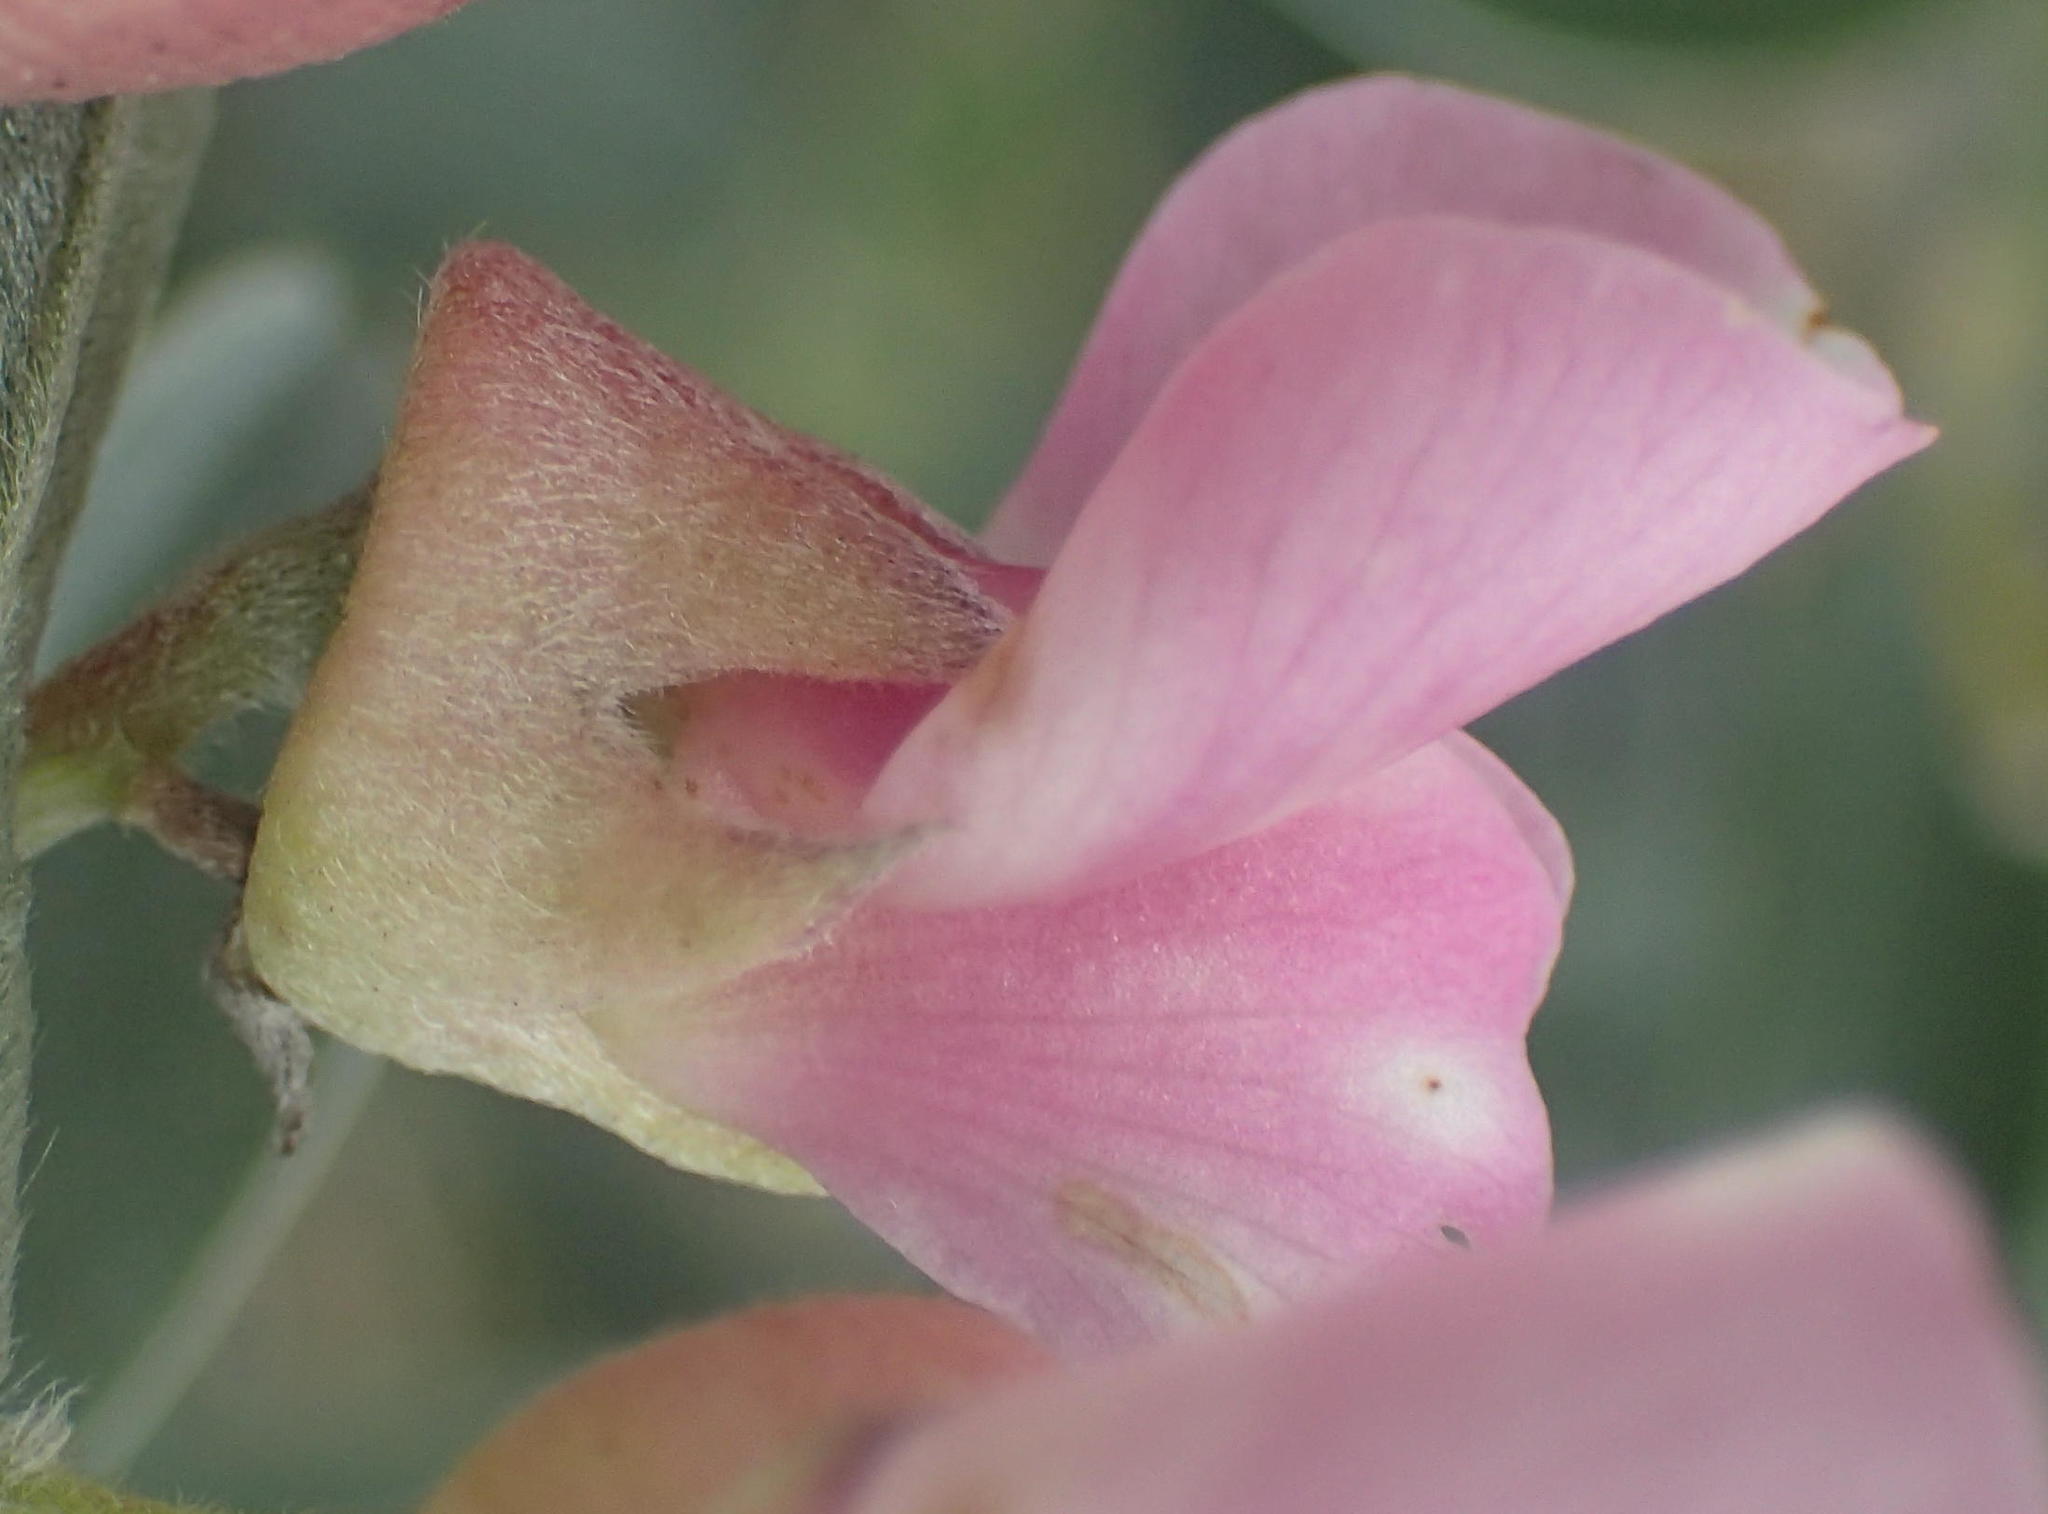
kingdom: Plantae
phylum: Tracheophyta
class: Magnoliopsida
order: Fabales
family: Fabaceae
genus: Podalyria
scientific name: Podalyria myrtillifolia
